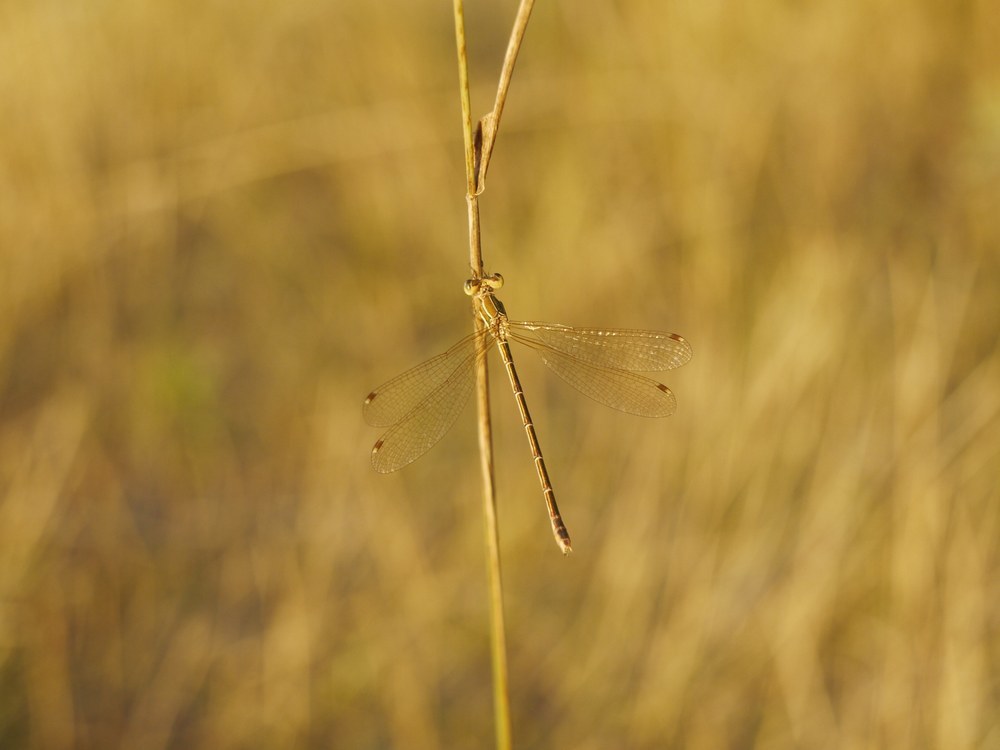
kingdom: Animalia
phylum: Arthropoda
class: Insecta
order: Odonata
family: Lestidae
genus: Lestes
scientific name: Lestes barbarus
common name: Migrant spreadwing
